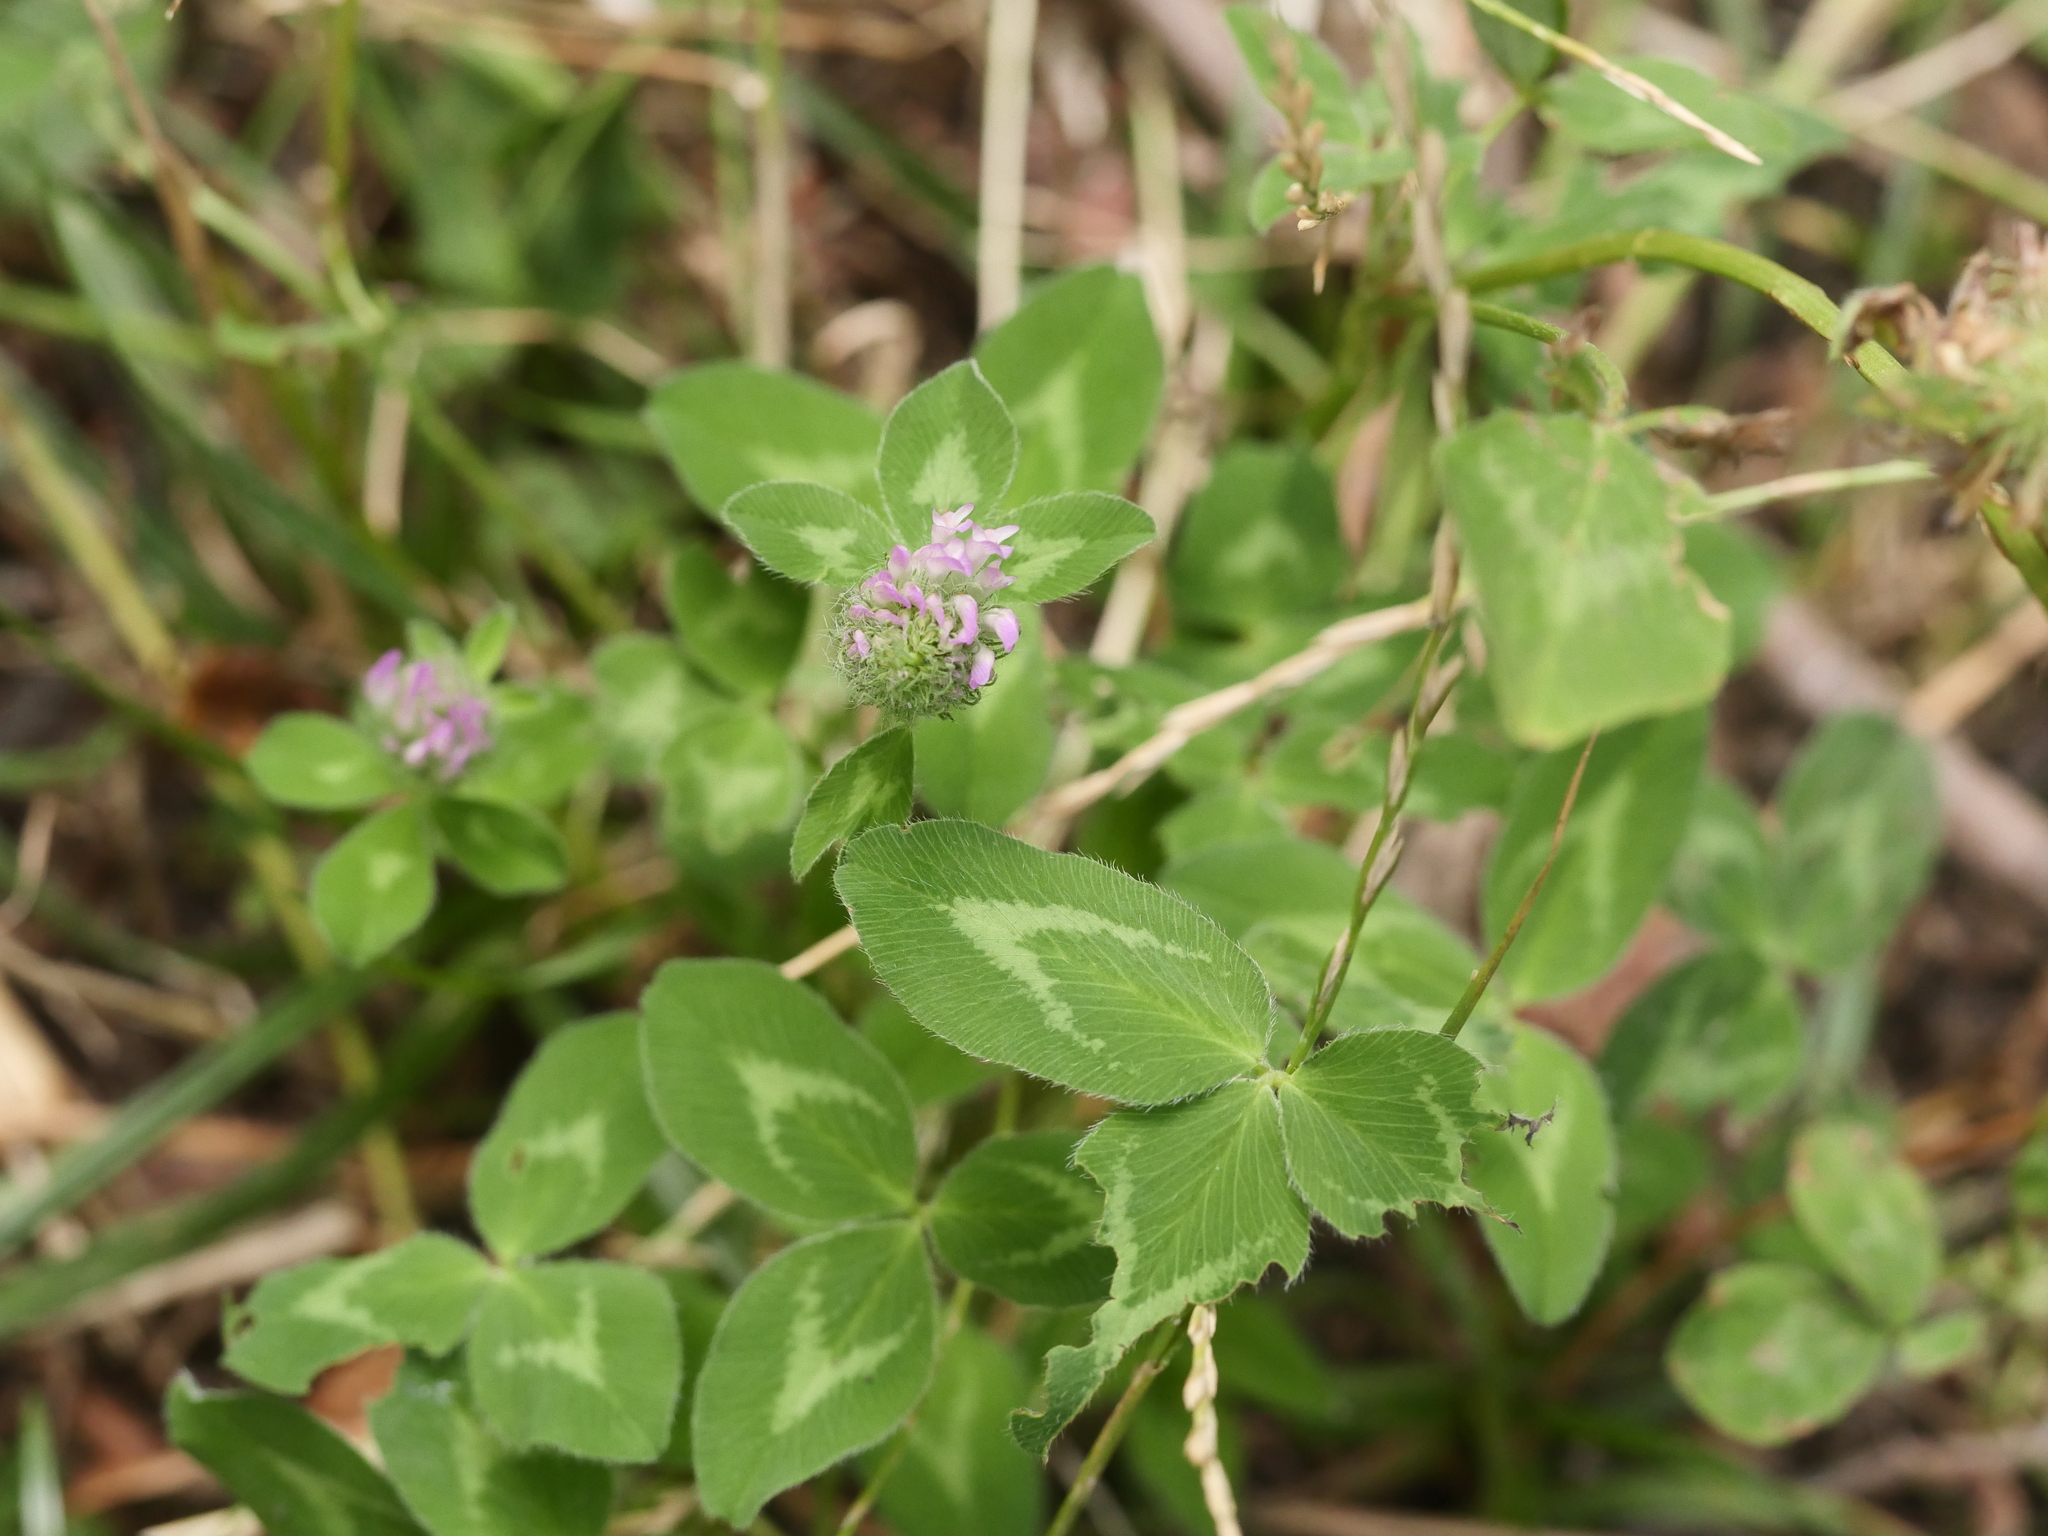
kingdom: Plantae
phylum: Tracheophyta
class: Magnoliopsida
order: Fabales
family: Fabaceae
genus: Trifolium
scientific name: Trifolium pratense
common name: Red clover
